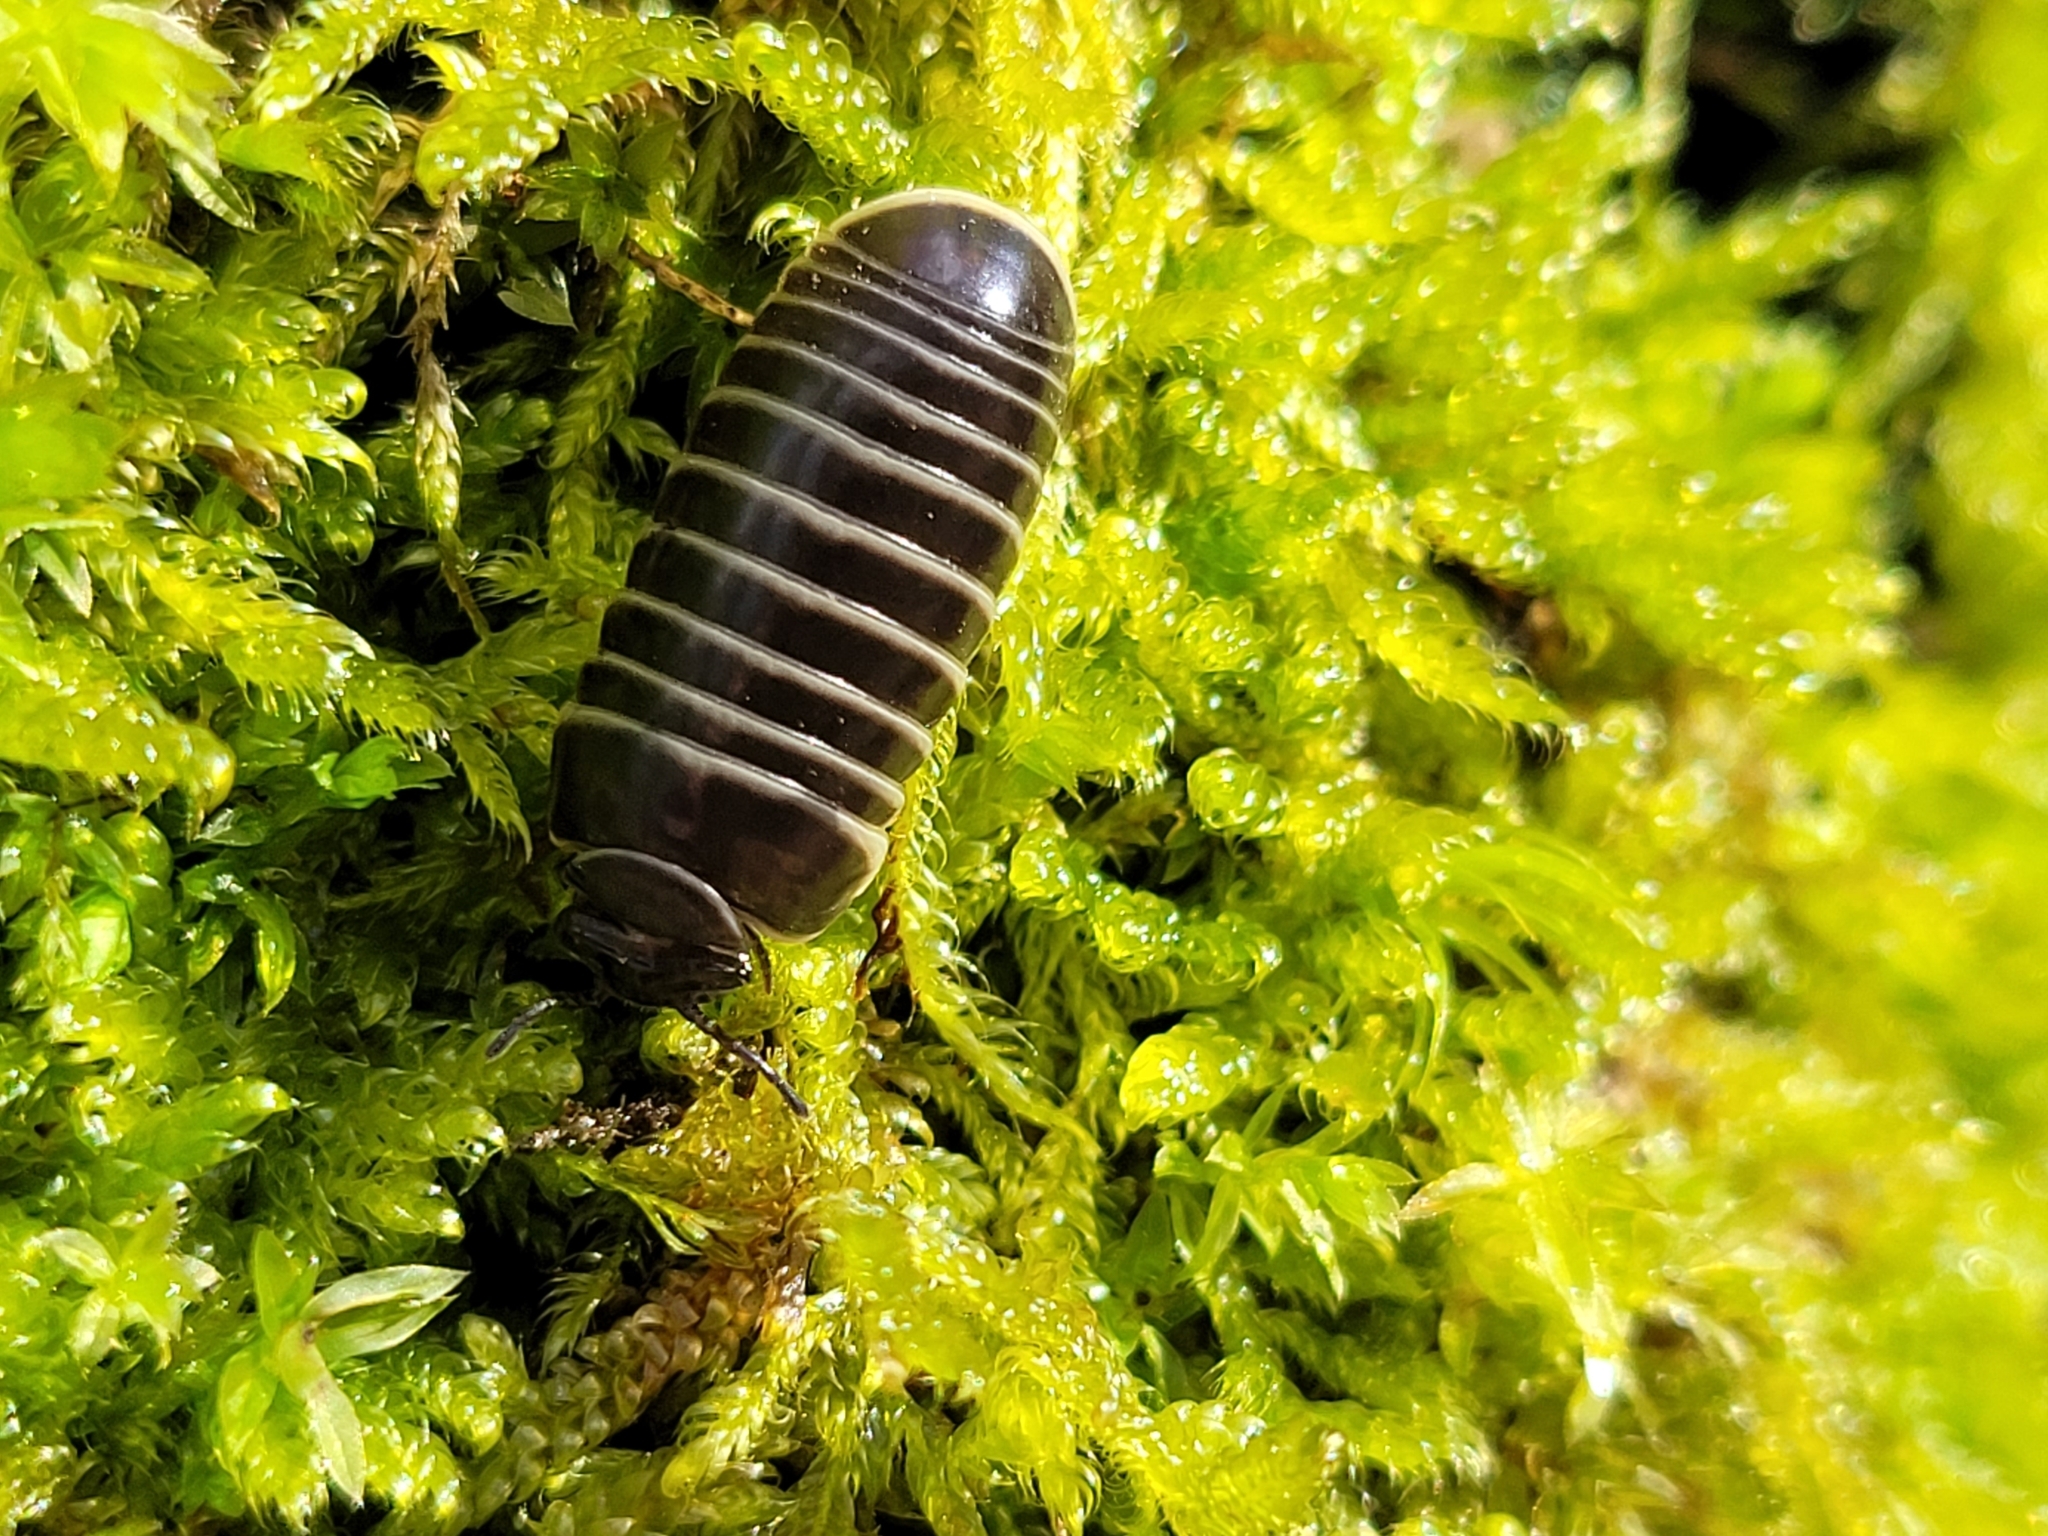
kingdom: Animalia
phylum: Arthropoda
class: Diplopoda
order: Glomerida
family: Glomeridae
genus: Glomeris
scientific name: Glomeris marginata
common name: Bordered pill millipede
